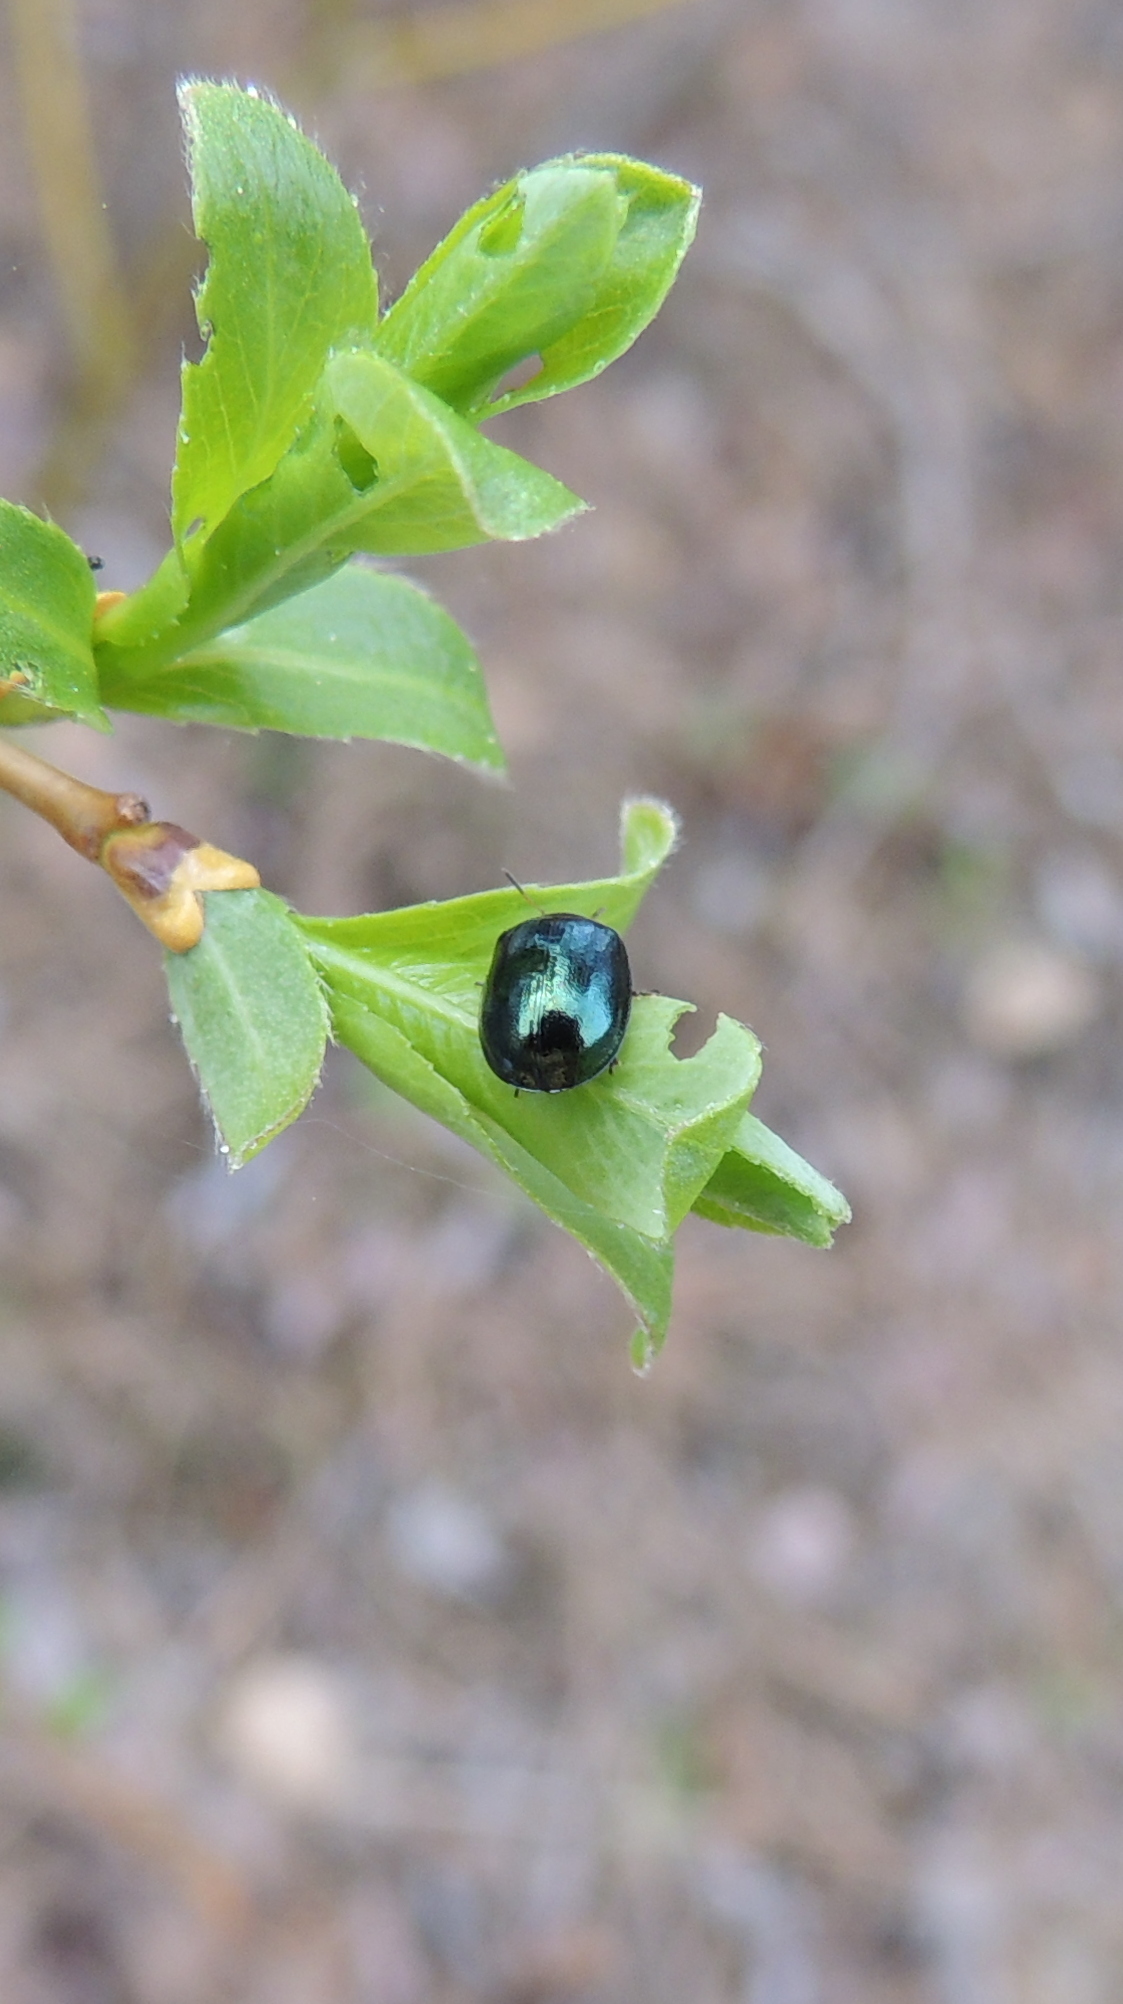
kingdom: Animalia
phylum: Arthropoda
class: Insecta
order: Coleoptera
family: Chrysomelidae
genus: Plagiodera
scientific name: Plagiodera versicolora
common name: Imported willow leaf beetle
